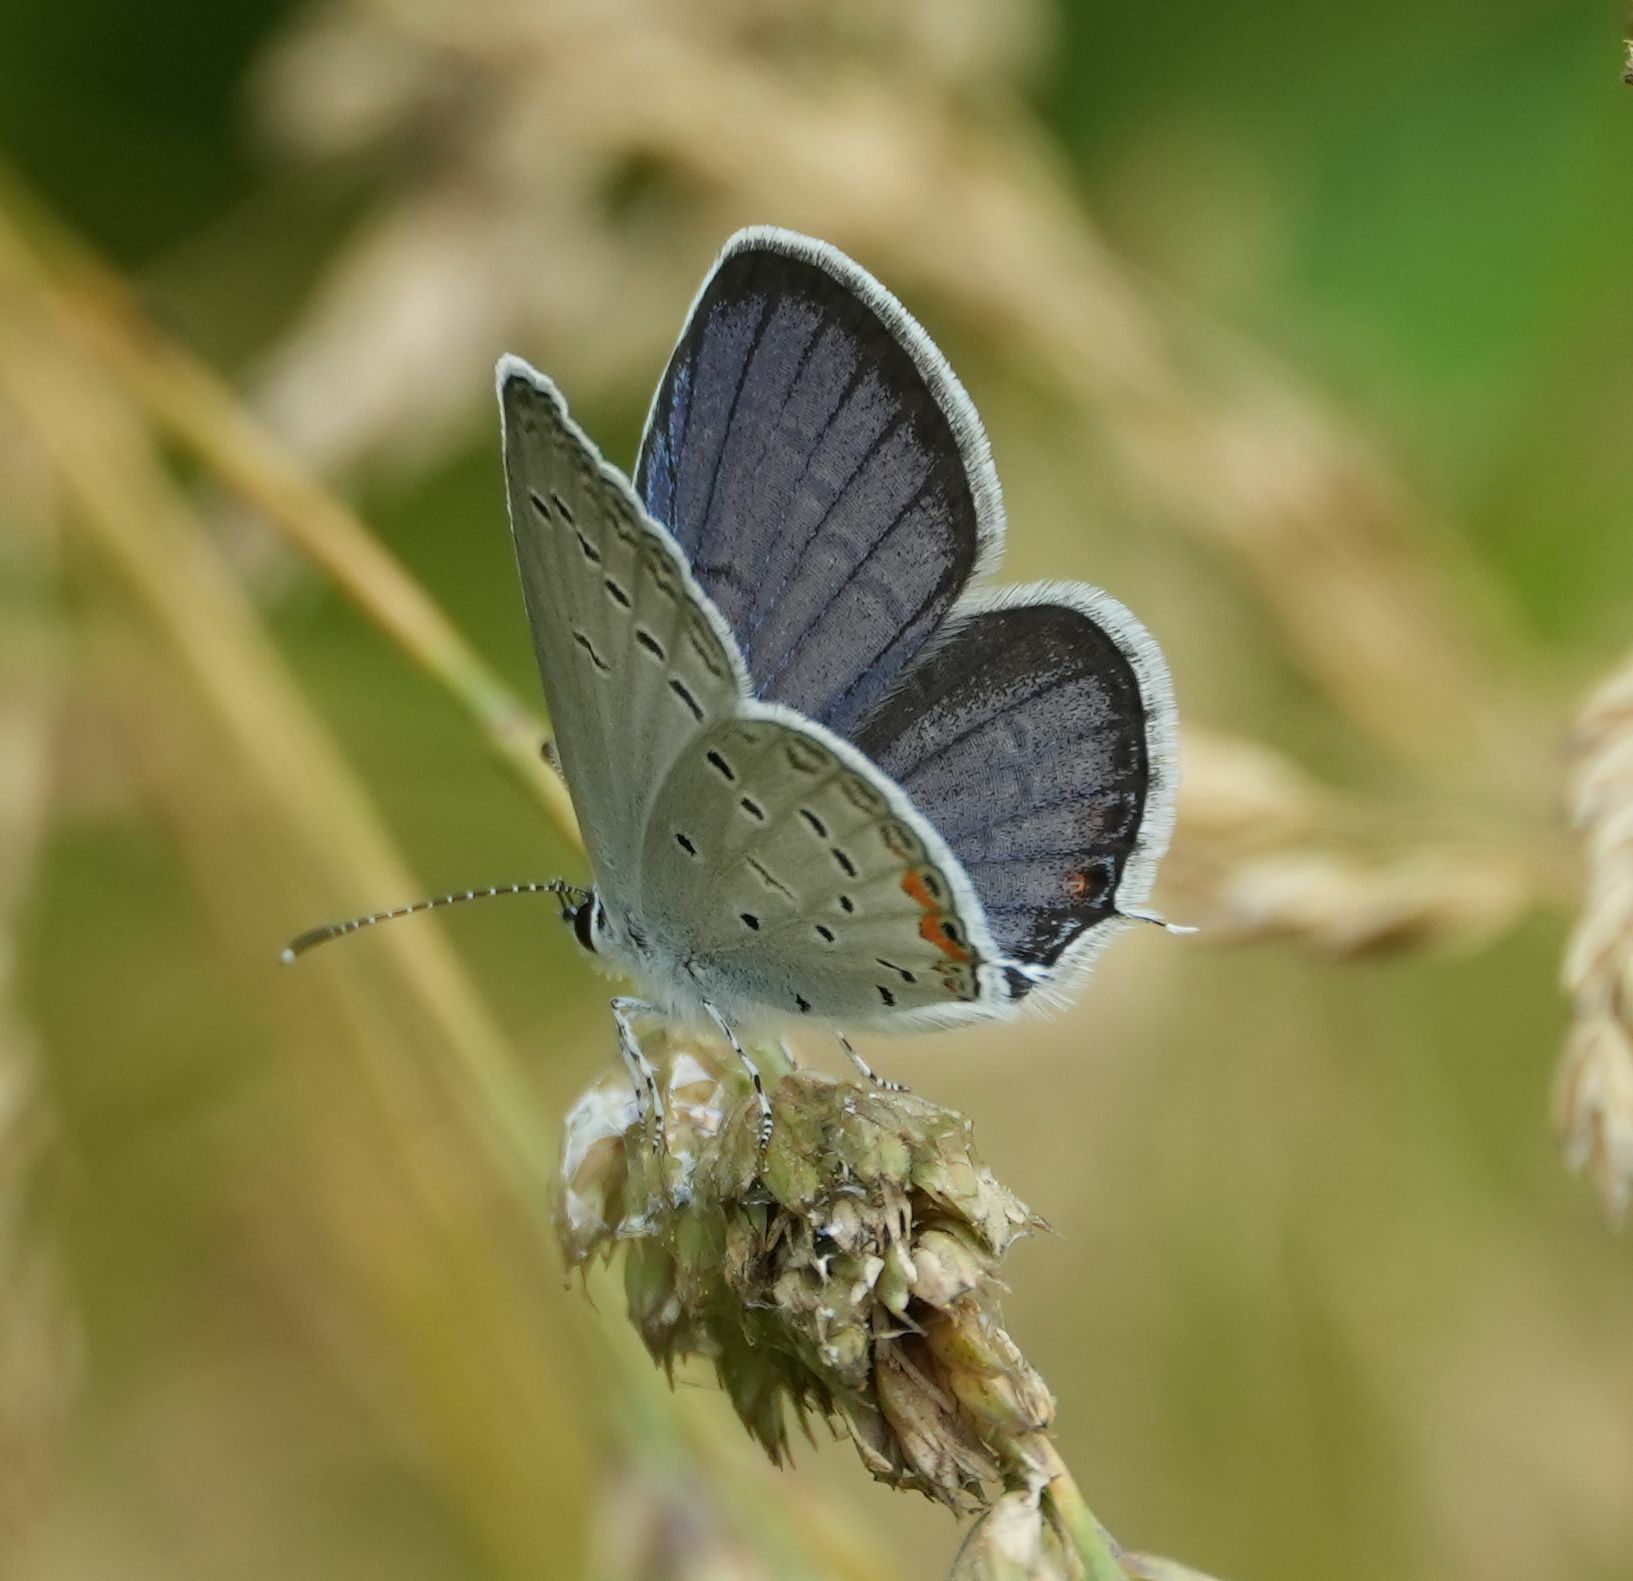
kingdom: Animalia
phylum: Arthropoda
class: Insecta
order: Lepidoptera
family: Lycaenidae
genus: Elkalyce
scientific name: Elkalyce comyntas
